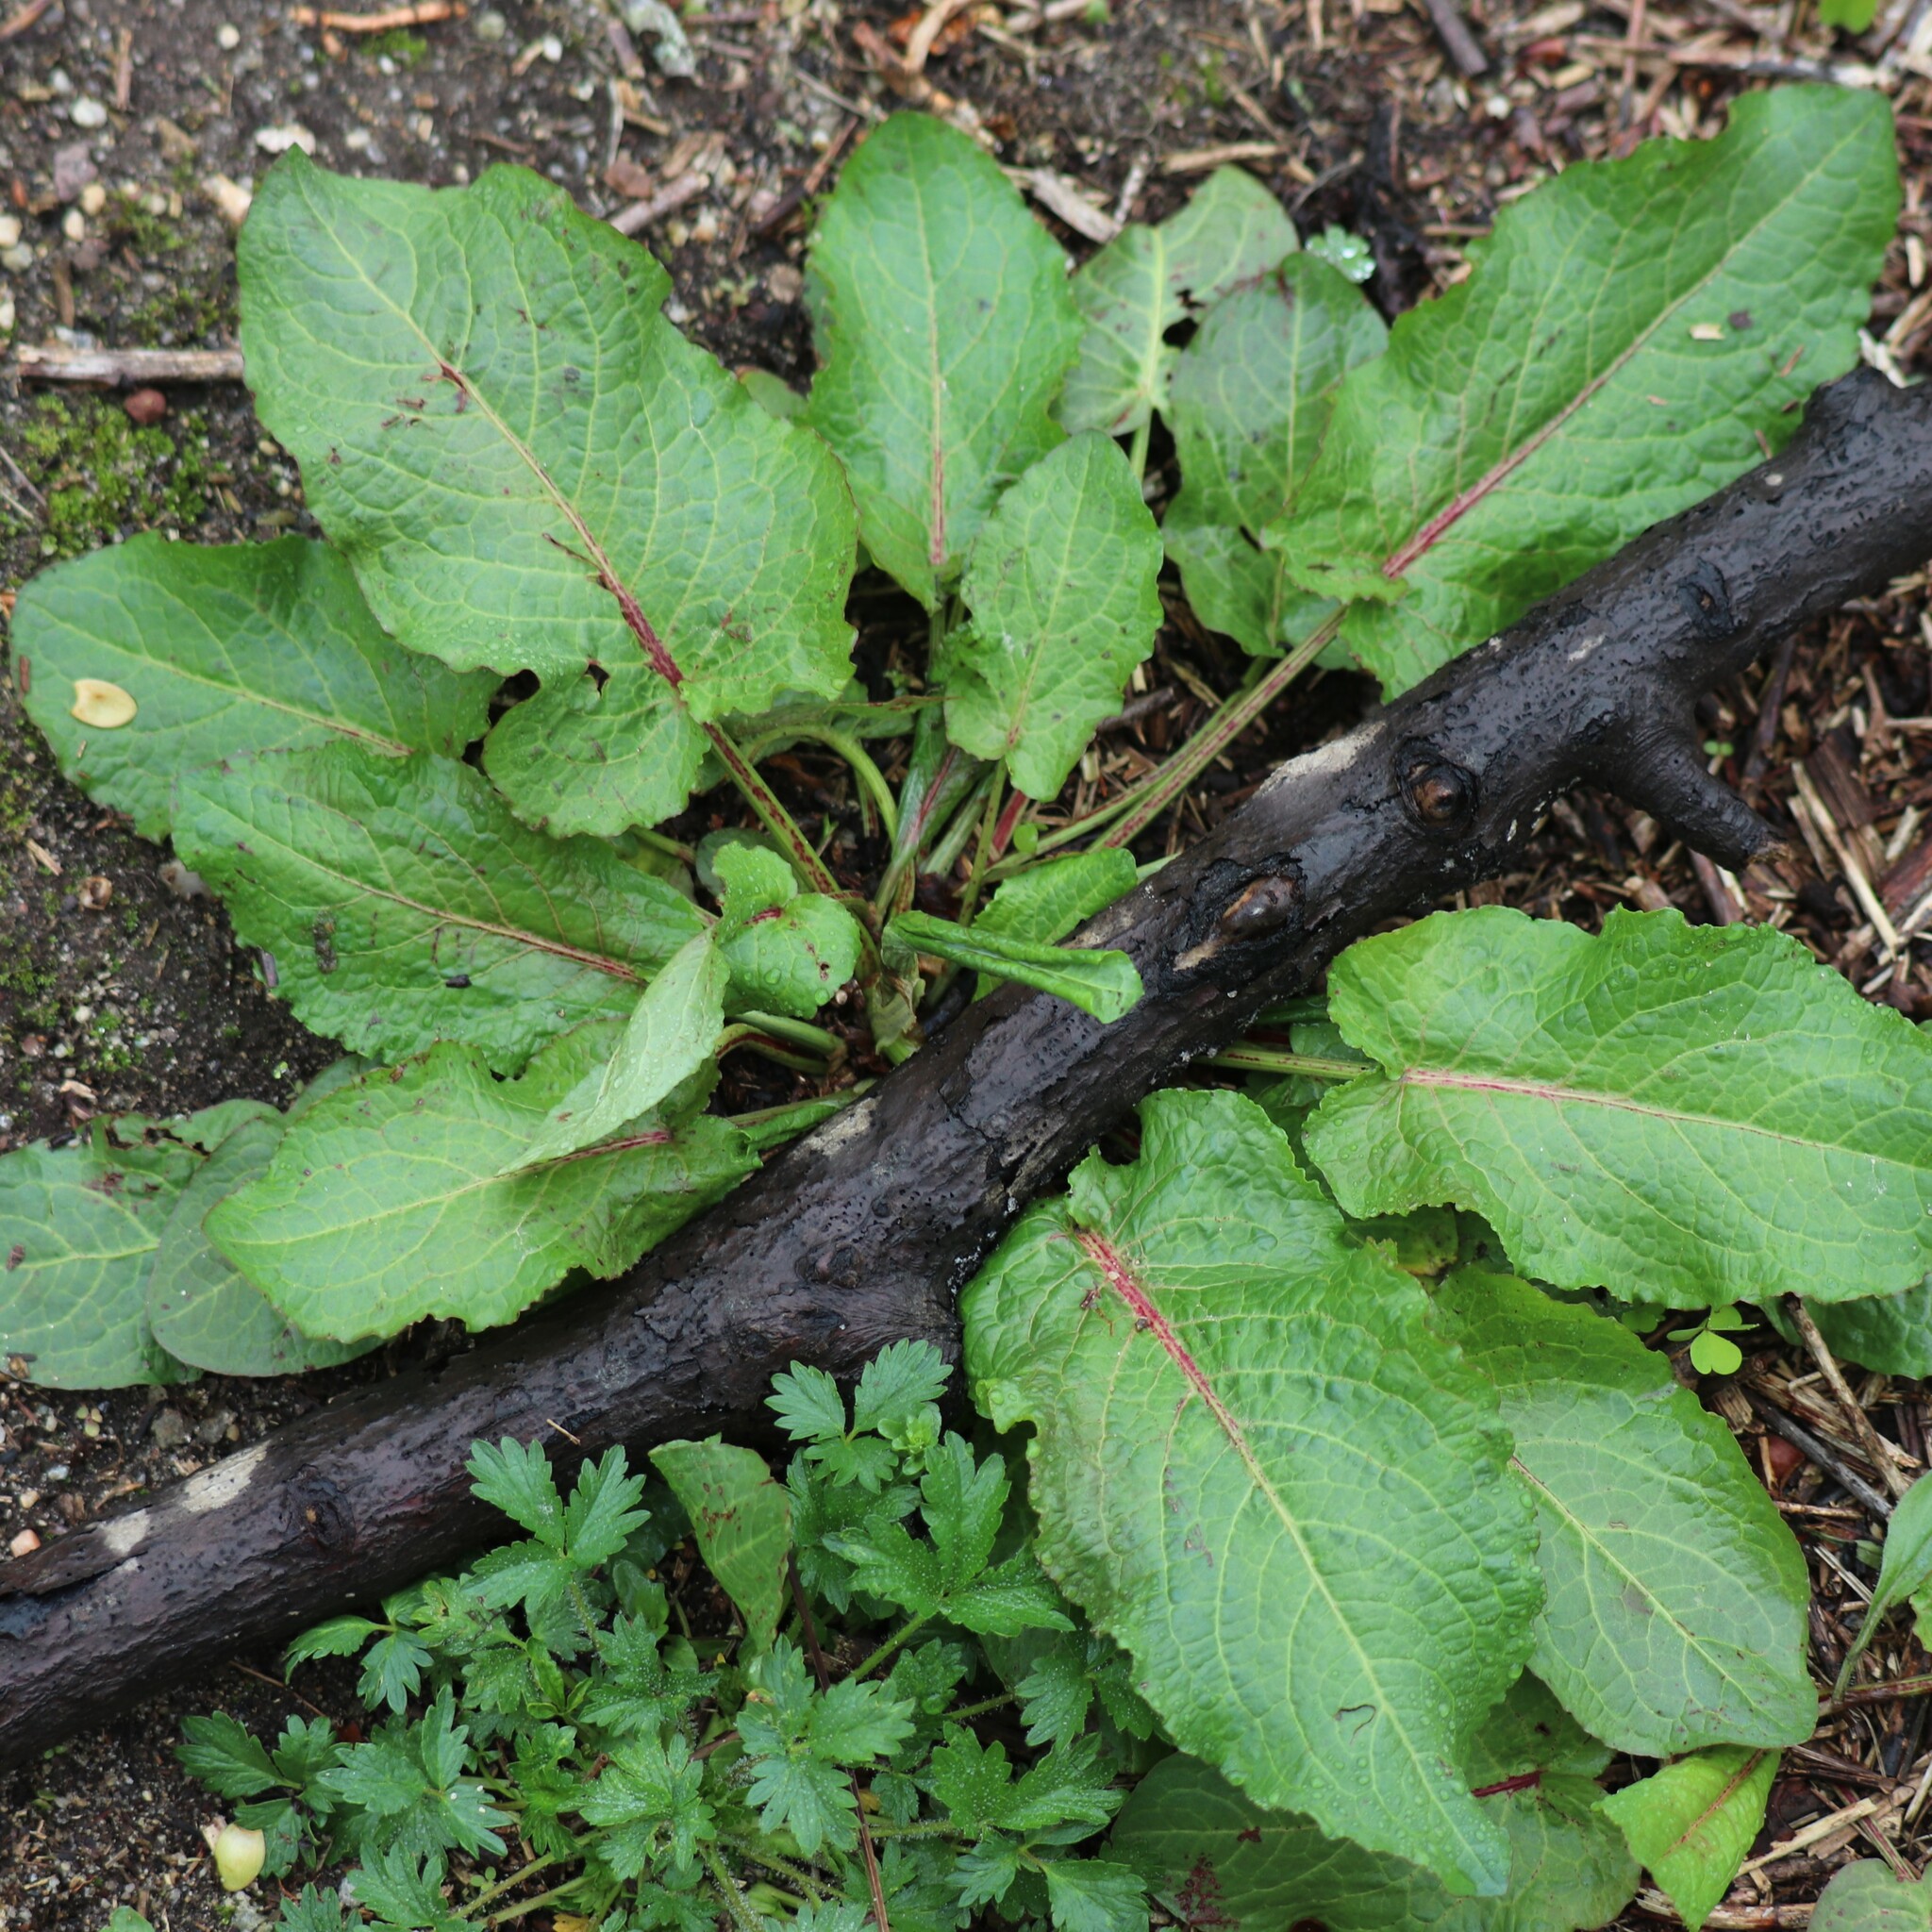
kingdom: Plantae
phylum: Tracheophyta
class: Magnoliopsida
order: Caryophyllales
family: Polygonaceae
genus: Rumex
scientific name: Rumex obtusifolius
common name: Bitter dock
